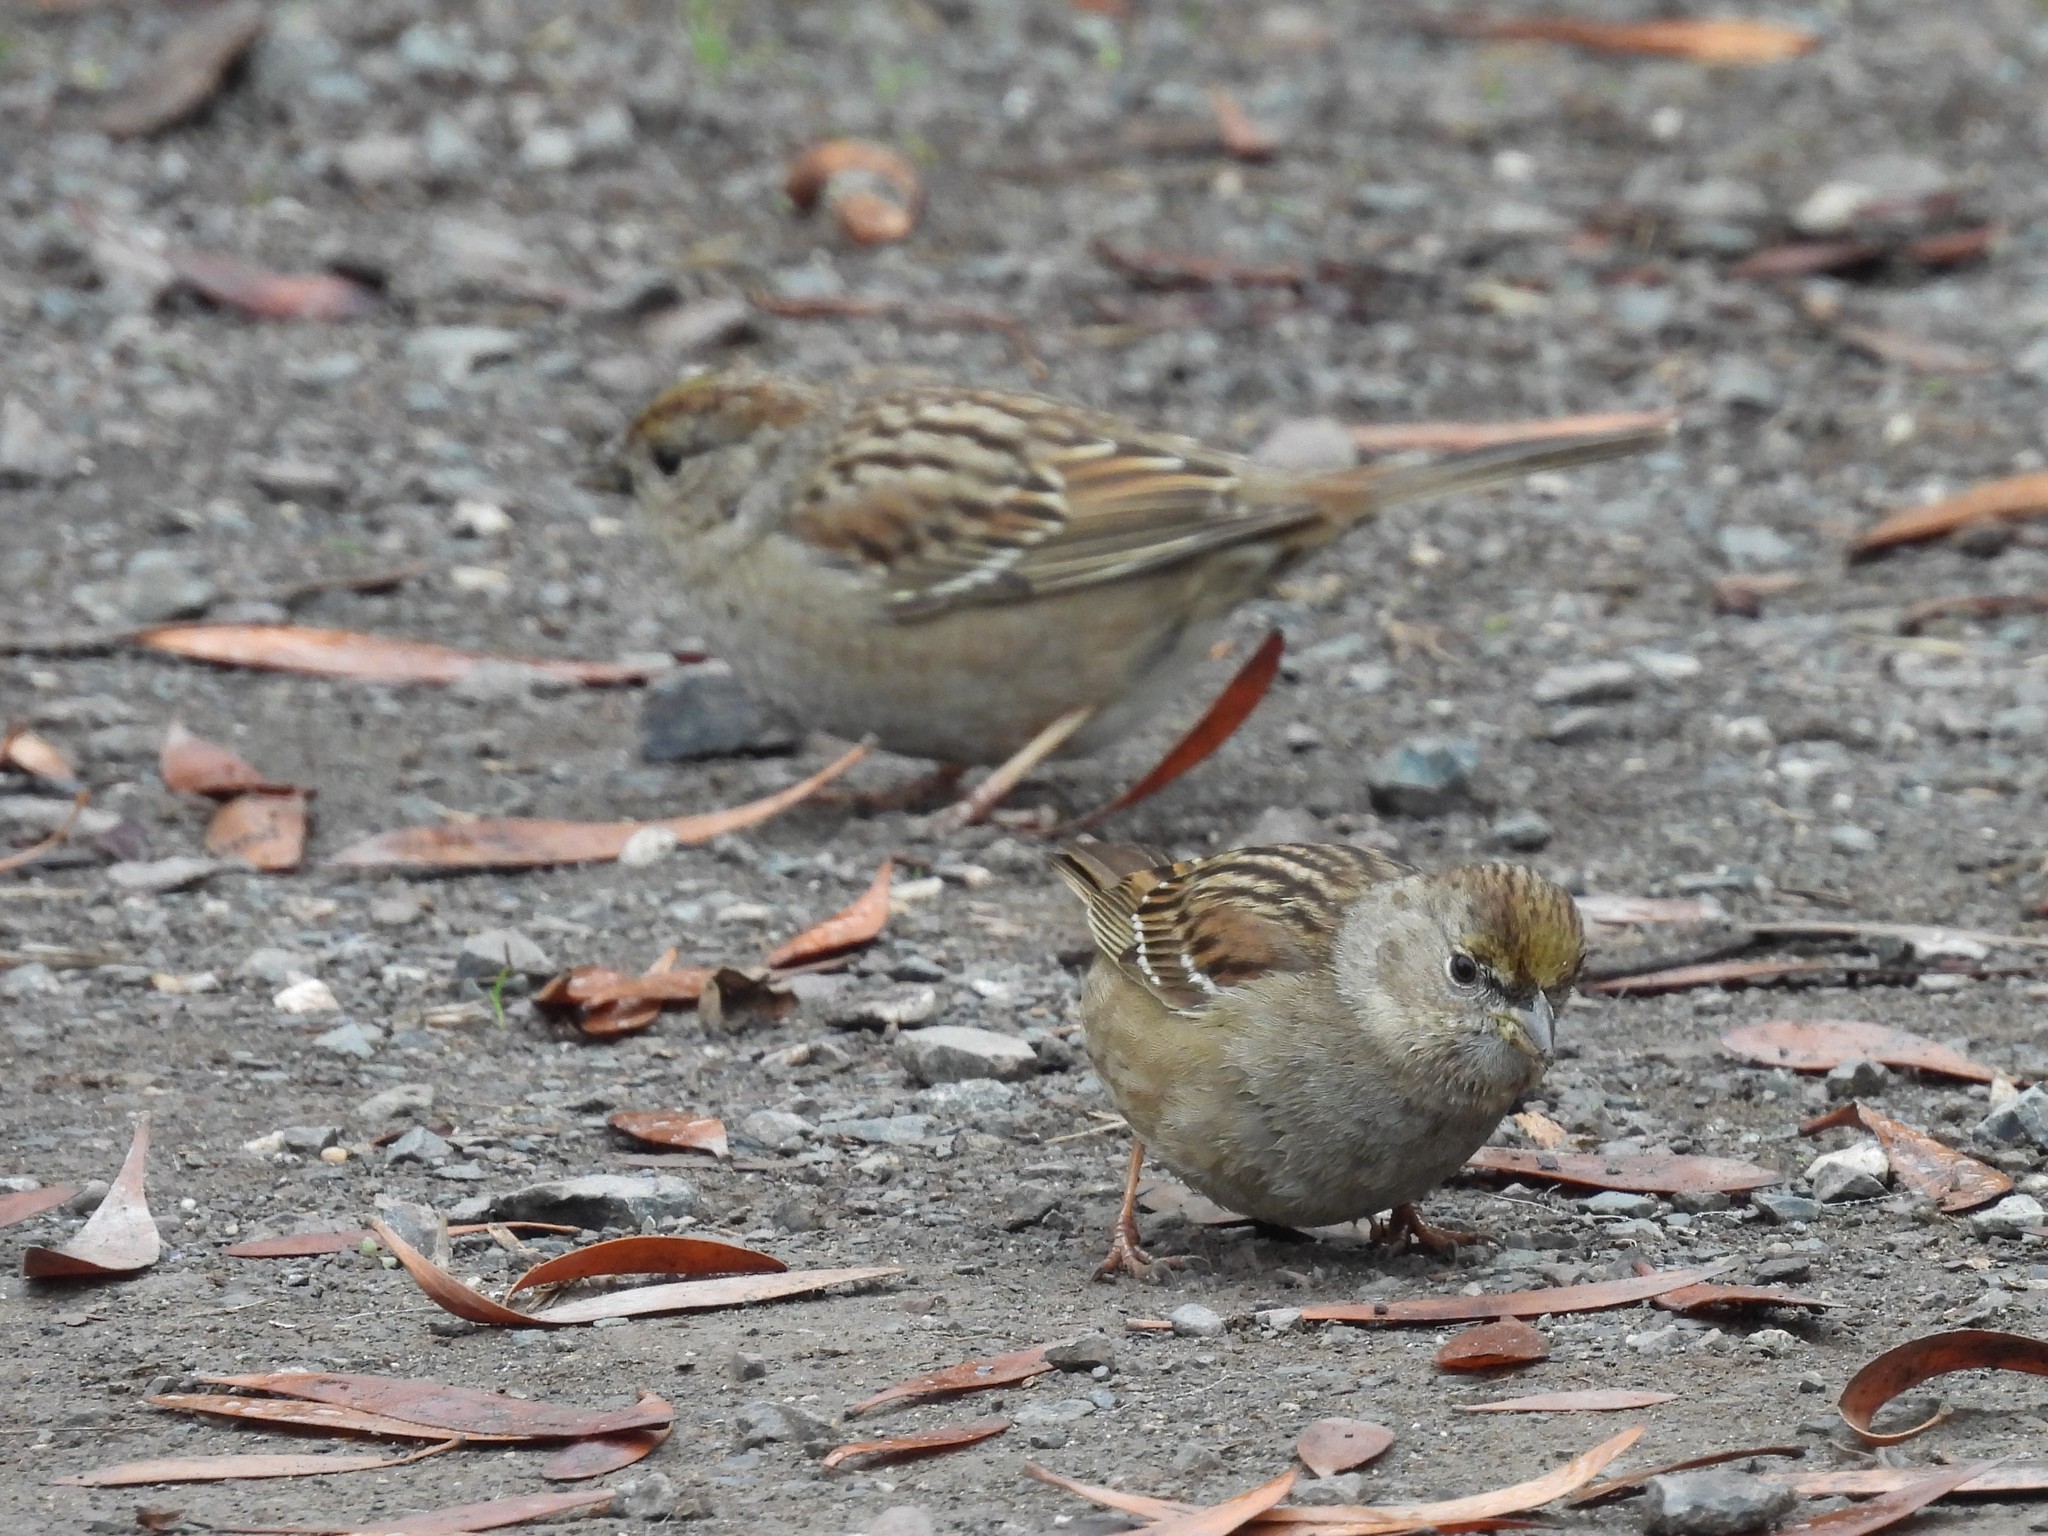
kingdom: Animalia
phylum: Chordata
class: Aves
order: Passeriformes
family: Passerellidae
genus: Zonotrichia
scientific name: Zonotrichia atricapilla
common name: Golden-crowned sparrow
